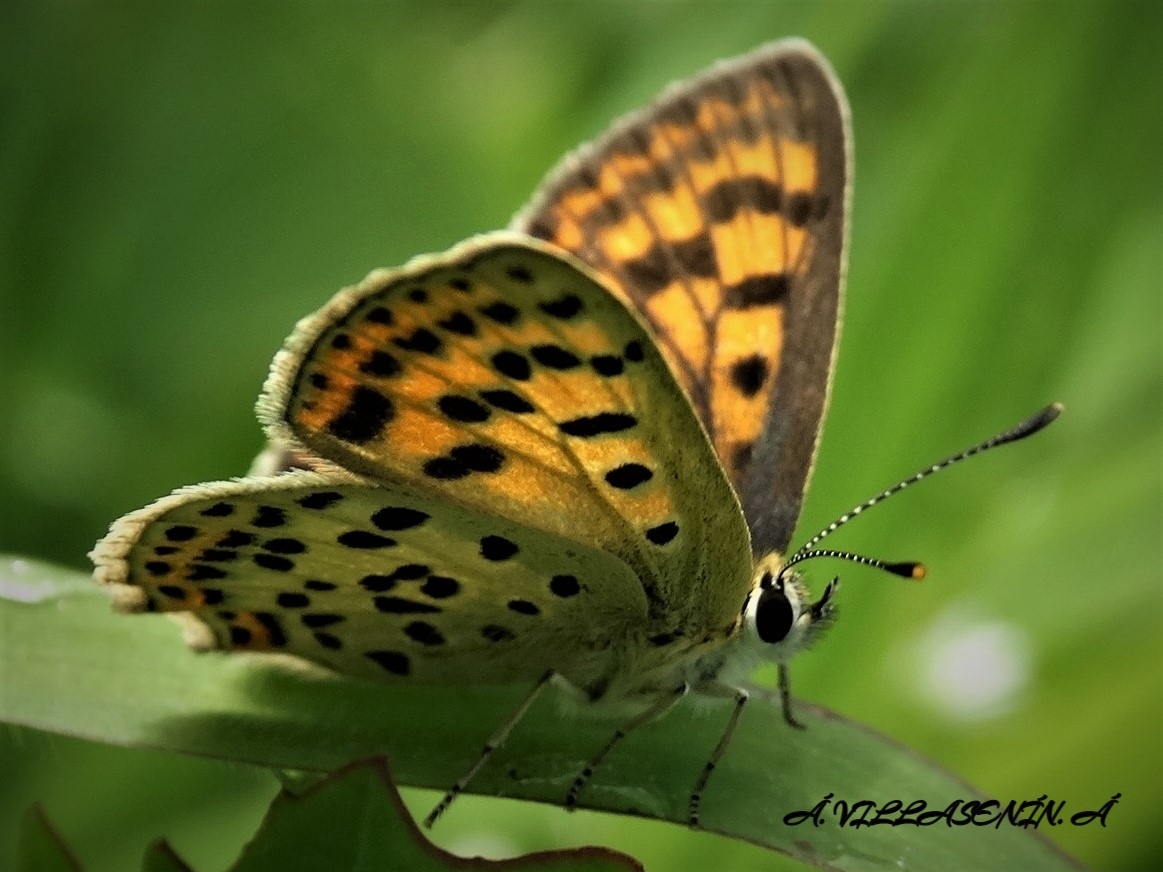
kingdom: Animalia
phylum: Arthropoda
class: Insecta
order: Lepidoptera
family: Lycaenidae
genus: Loweia
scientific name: Loweia tityrus
